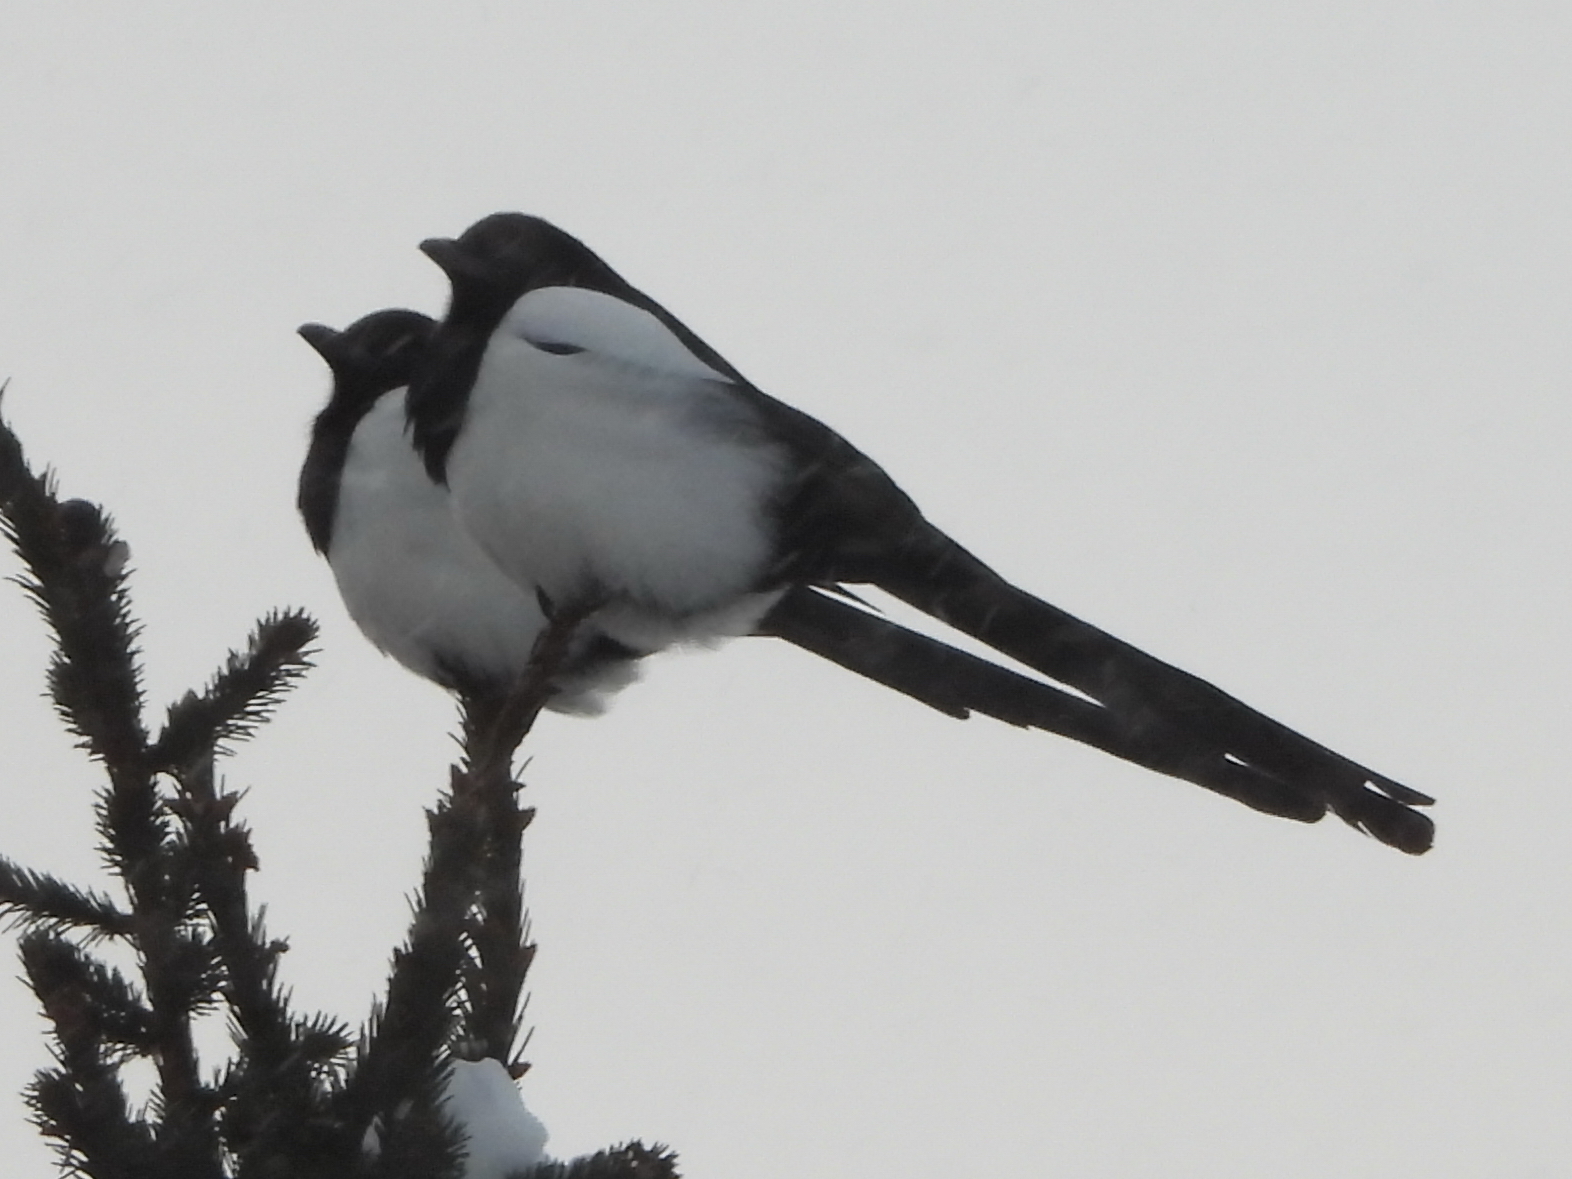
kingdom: Animalia
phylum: Chordata
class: Aves
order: Passeriformes
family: Corvidae
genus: Pica
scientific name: Pica pica
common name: Eurasian magpie
